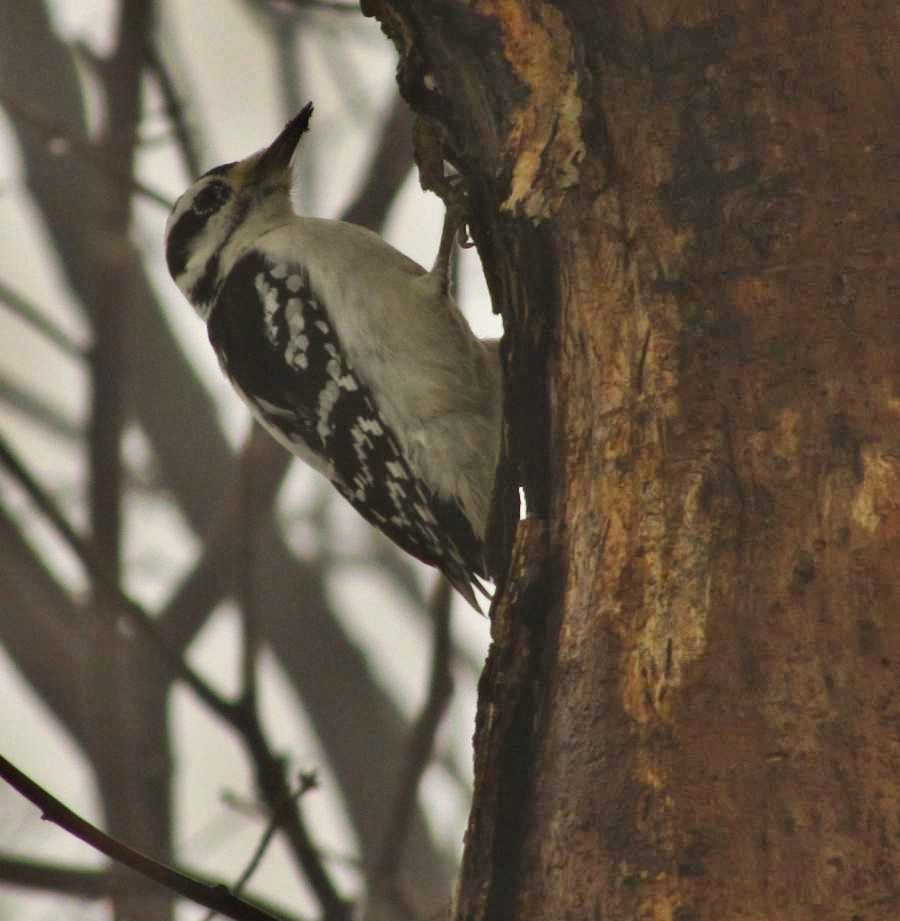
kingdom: Animalia
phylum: Chordata
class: Aves
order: Piciformes
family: Picidae
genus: Leuconotopicus
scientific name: Leuconotopicus villosus
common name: Hairy woodpecker
